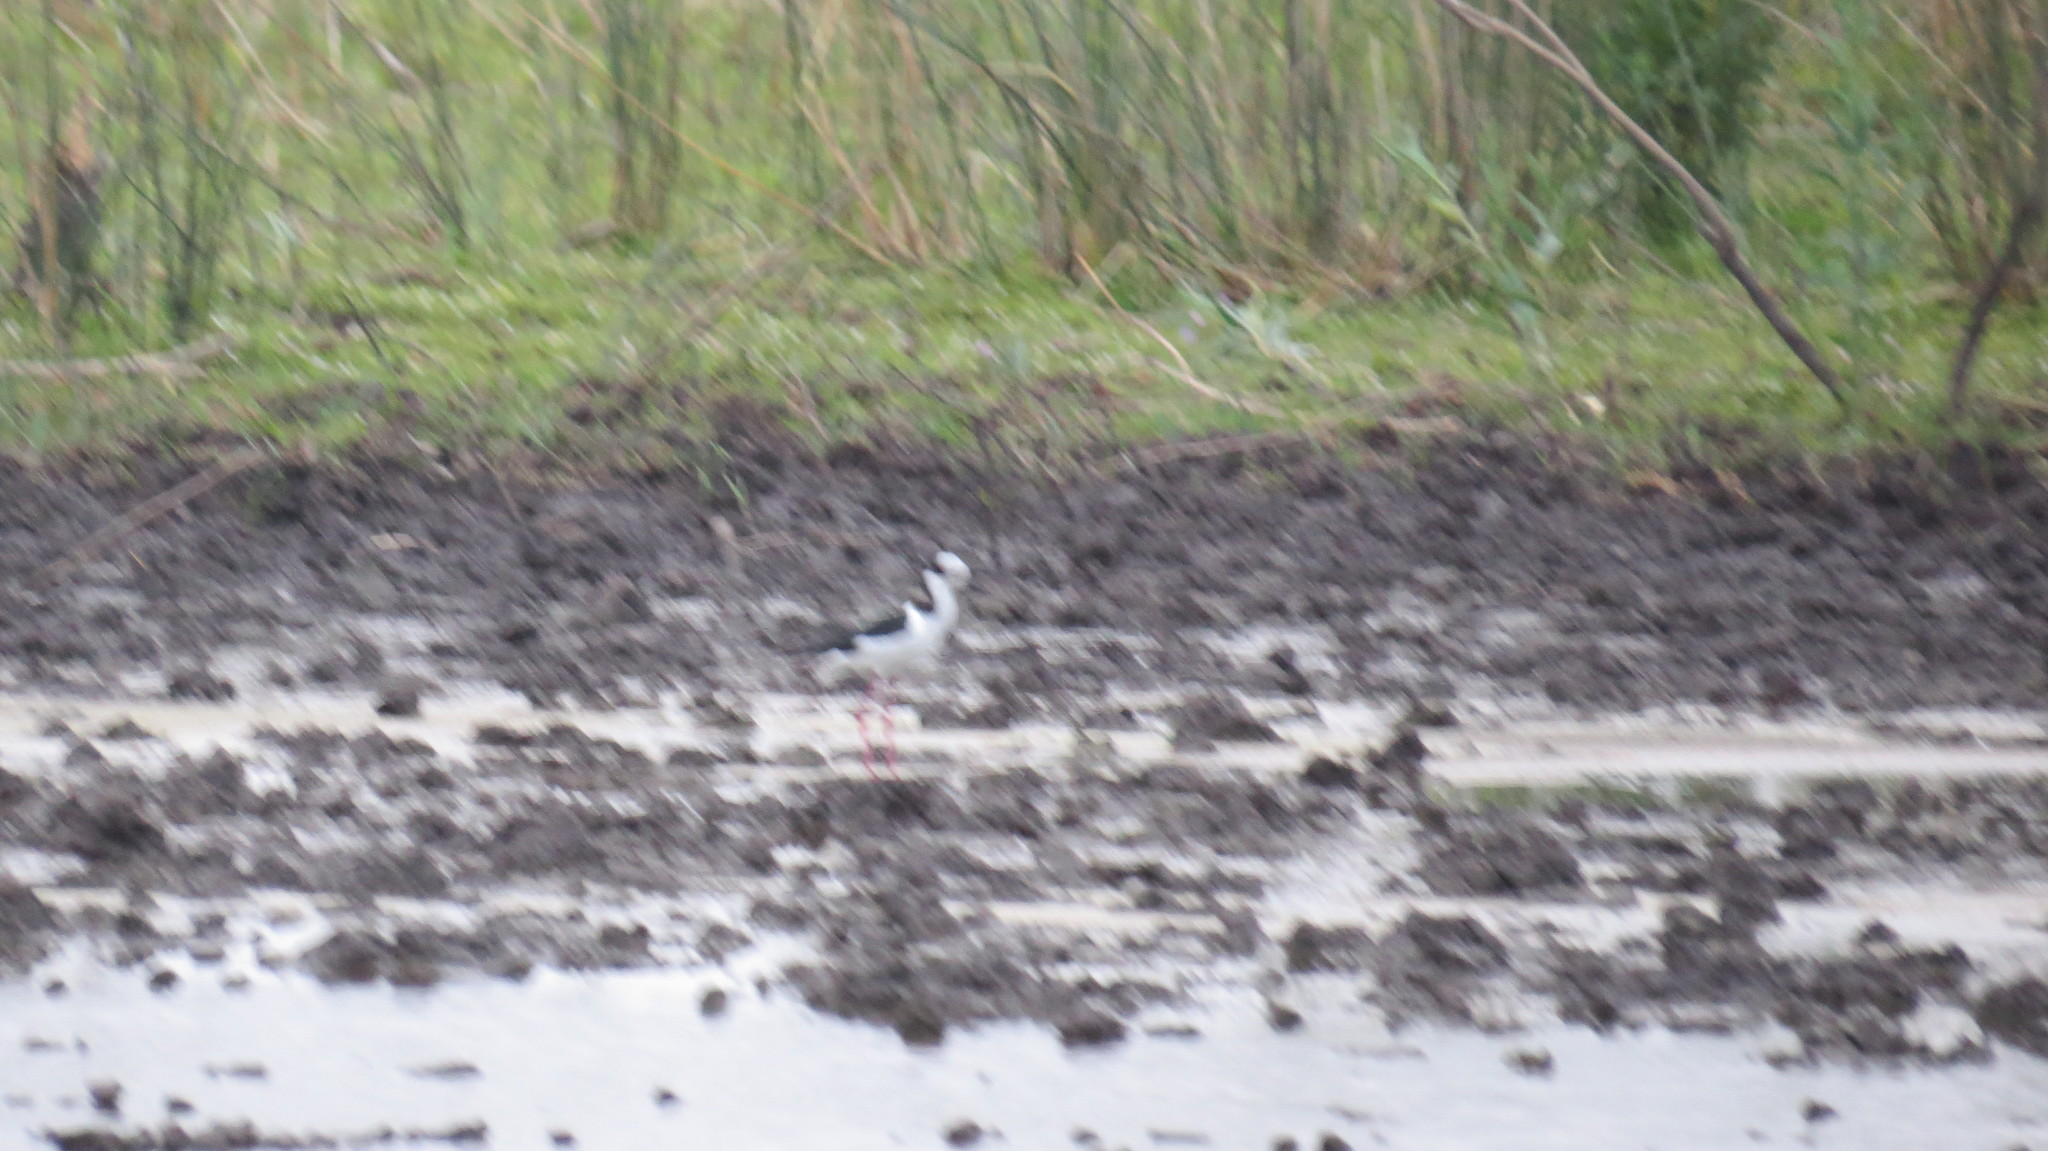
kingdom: Animalia
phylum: Chordata
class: Aves
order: Charadriiformes
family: Recurvirostridae
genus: Himantopus
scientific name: Himantopus mexicanus
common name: Black-necked stilt
